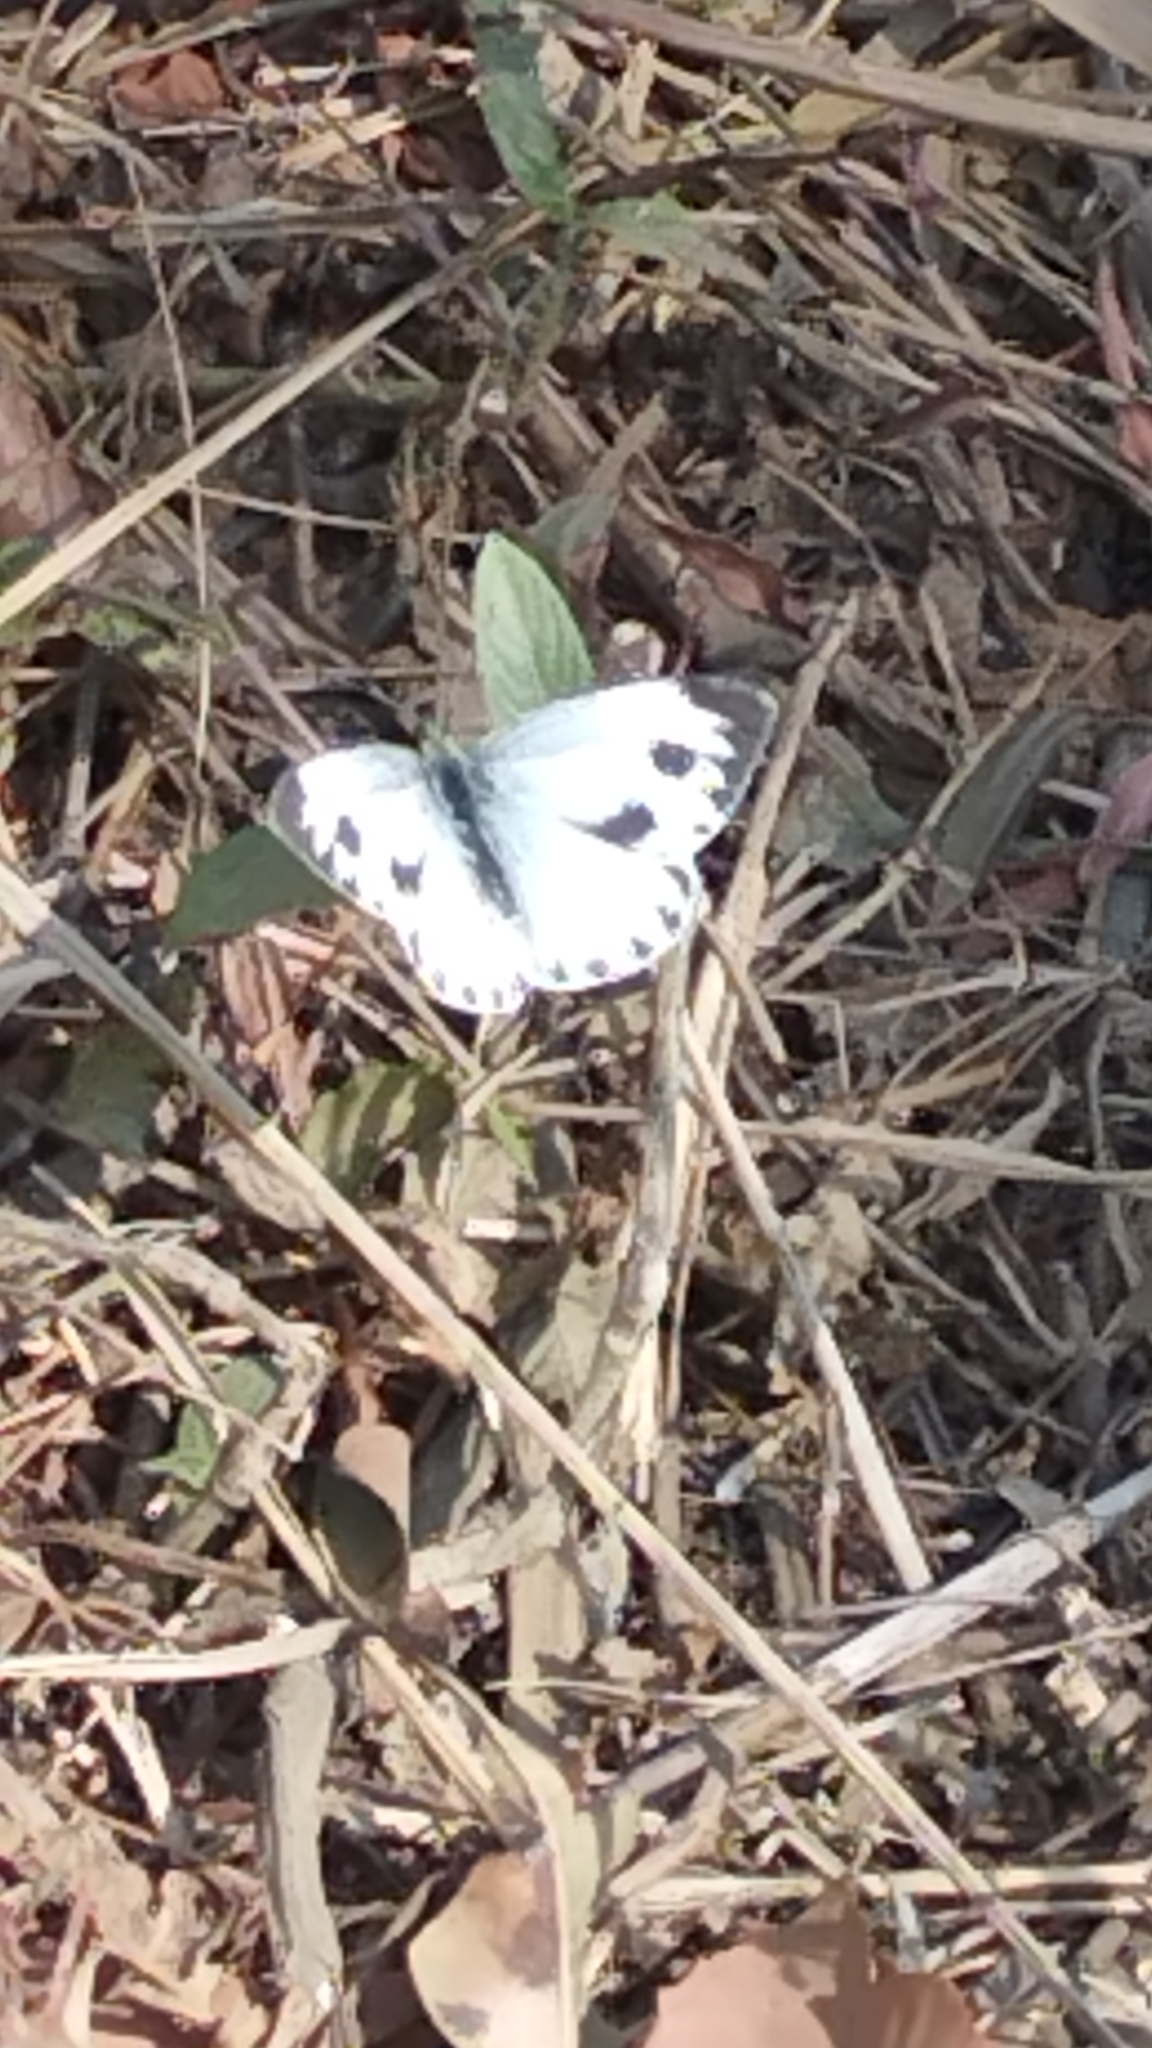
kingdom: Animalia
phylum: Arthropoda
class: Insecta
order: Lepidoptera
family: Pieridae
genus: Pieris
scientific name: Pieris canidia
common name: Indian cabbage white
